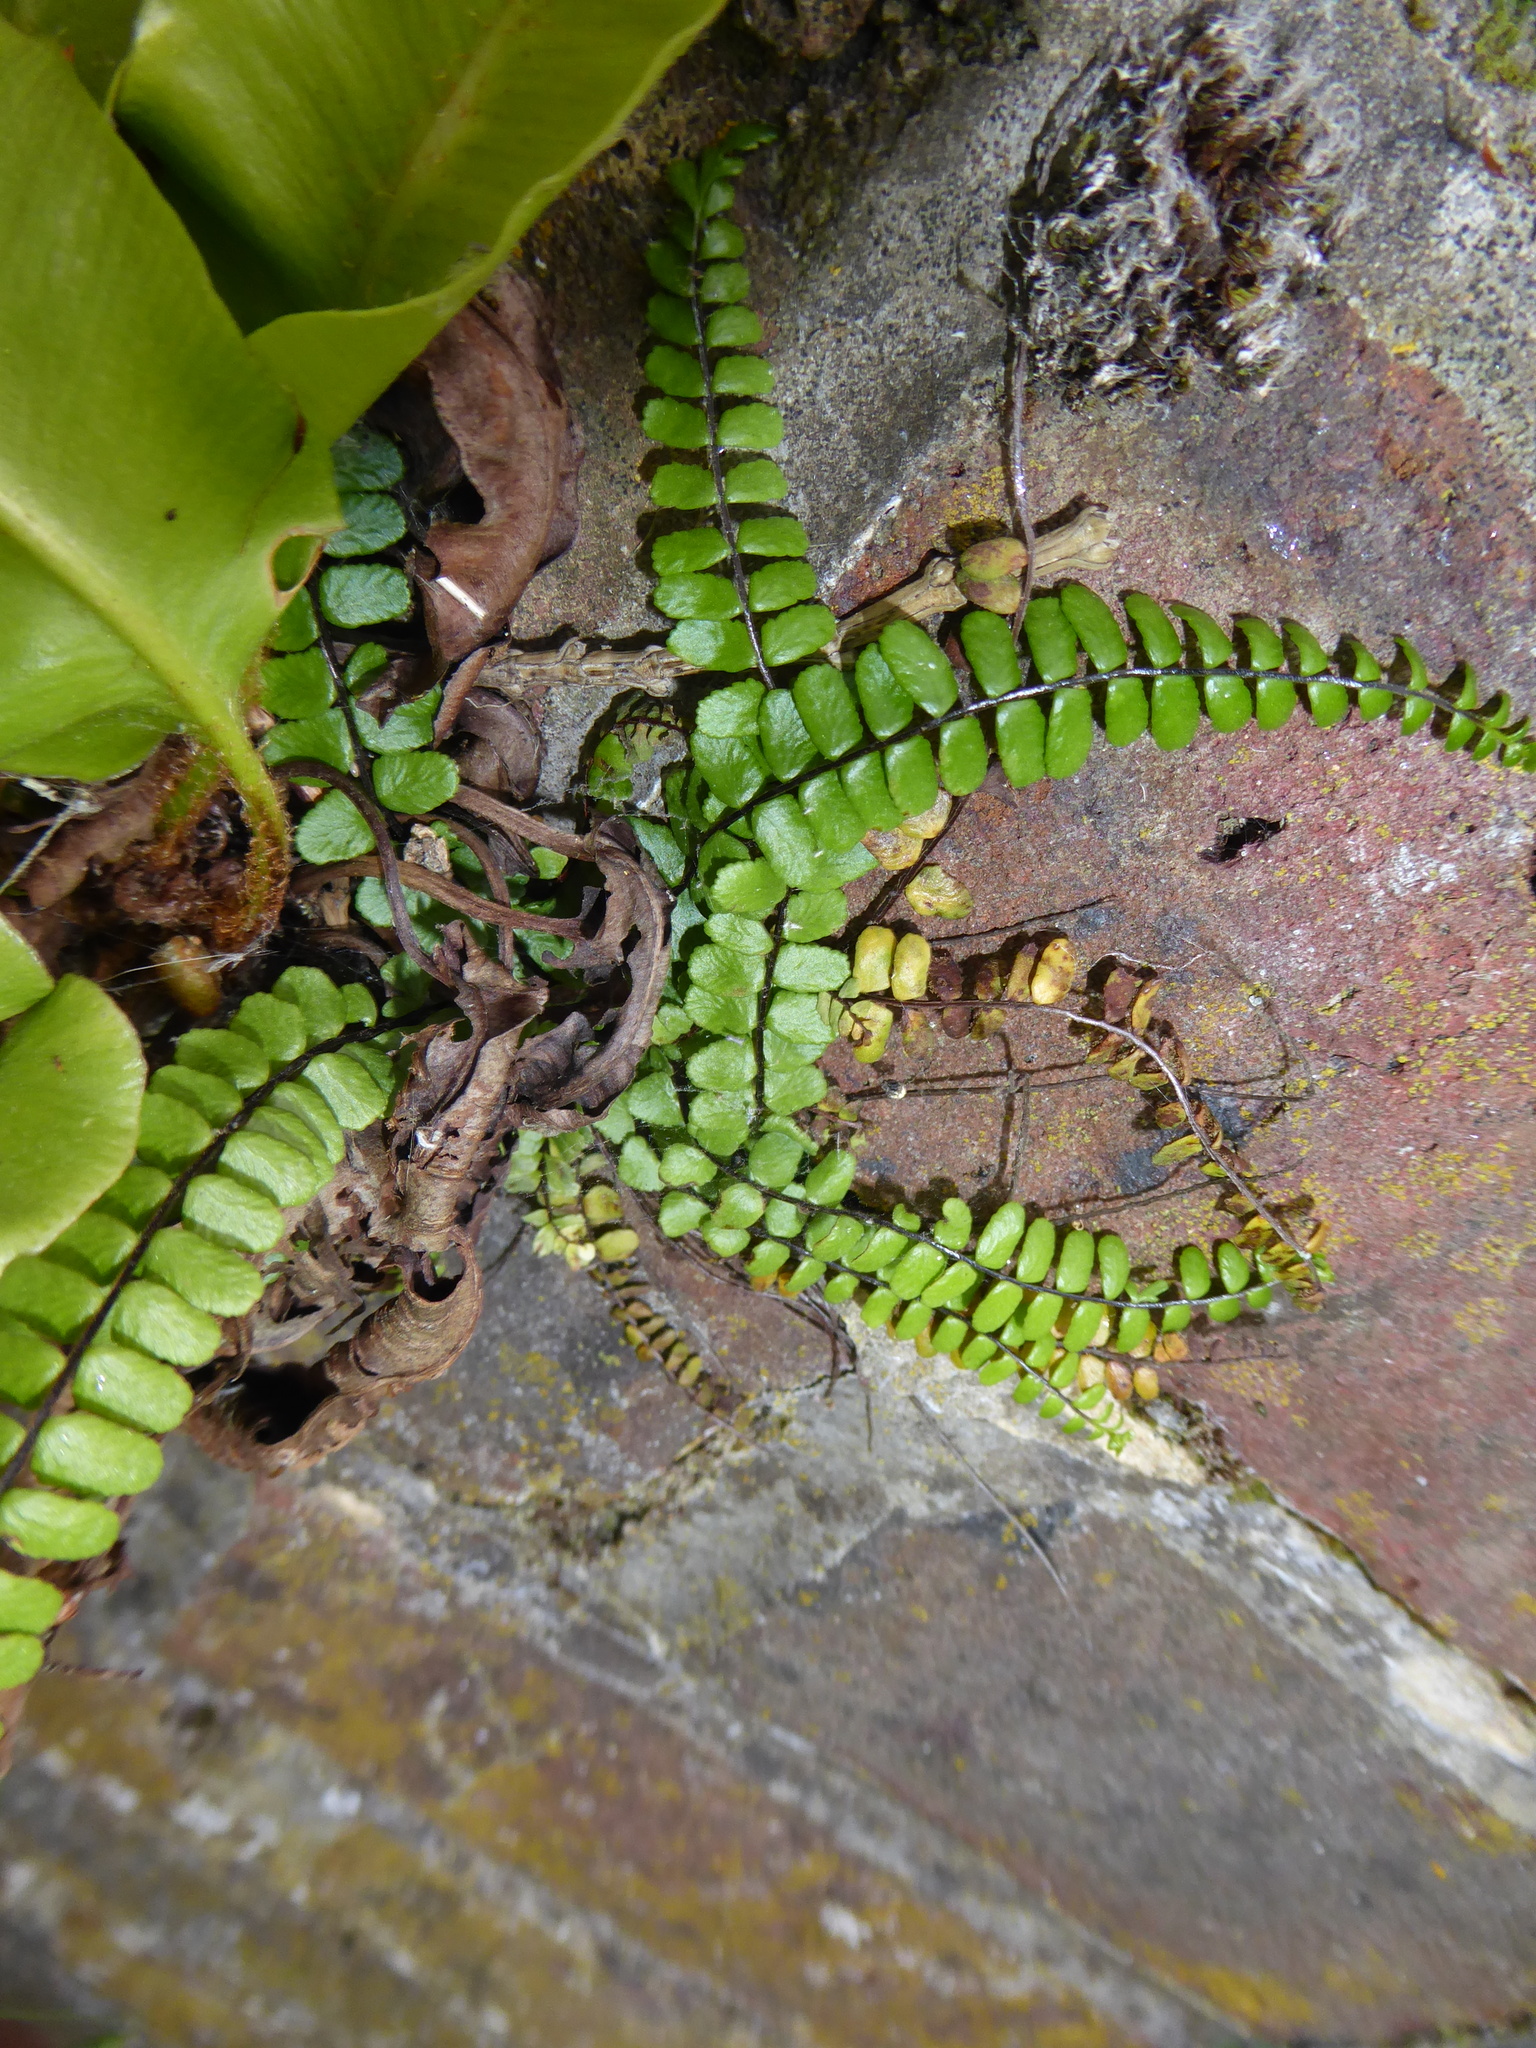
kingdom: Plantae
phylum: Tracheophyta
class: Polypodiopsida
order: Polypodiales
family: Aspleniaceae
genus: Asplenium
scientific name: Asplenium trichomanes
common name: Maidenhair spleenwort
